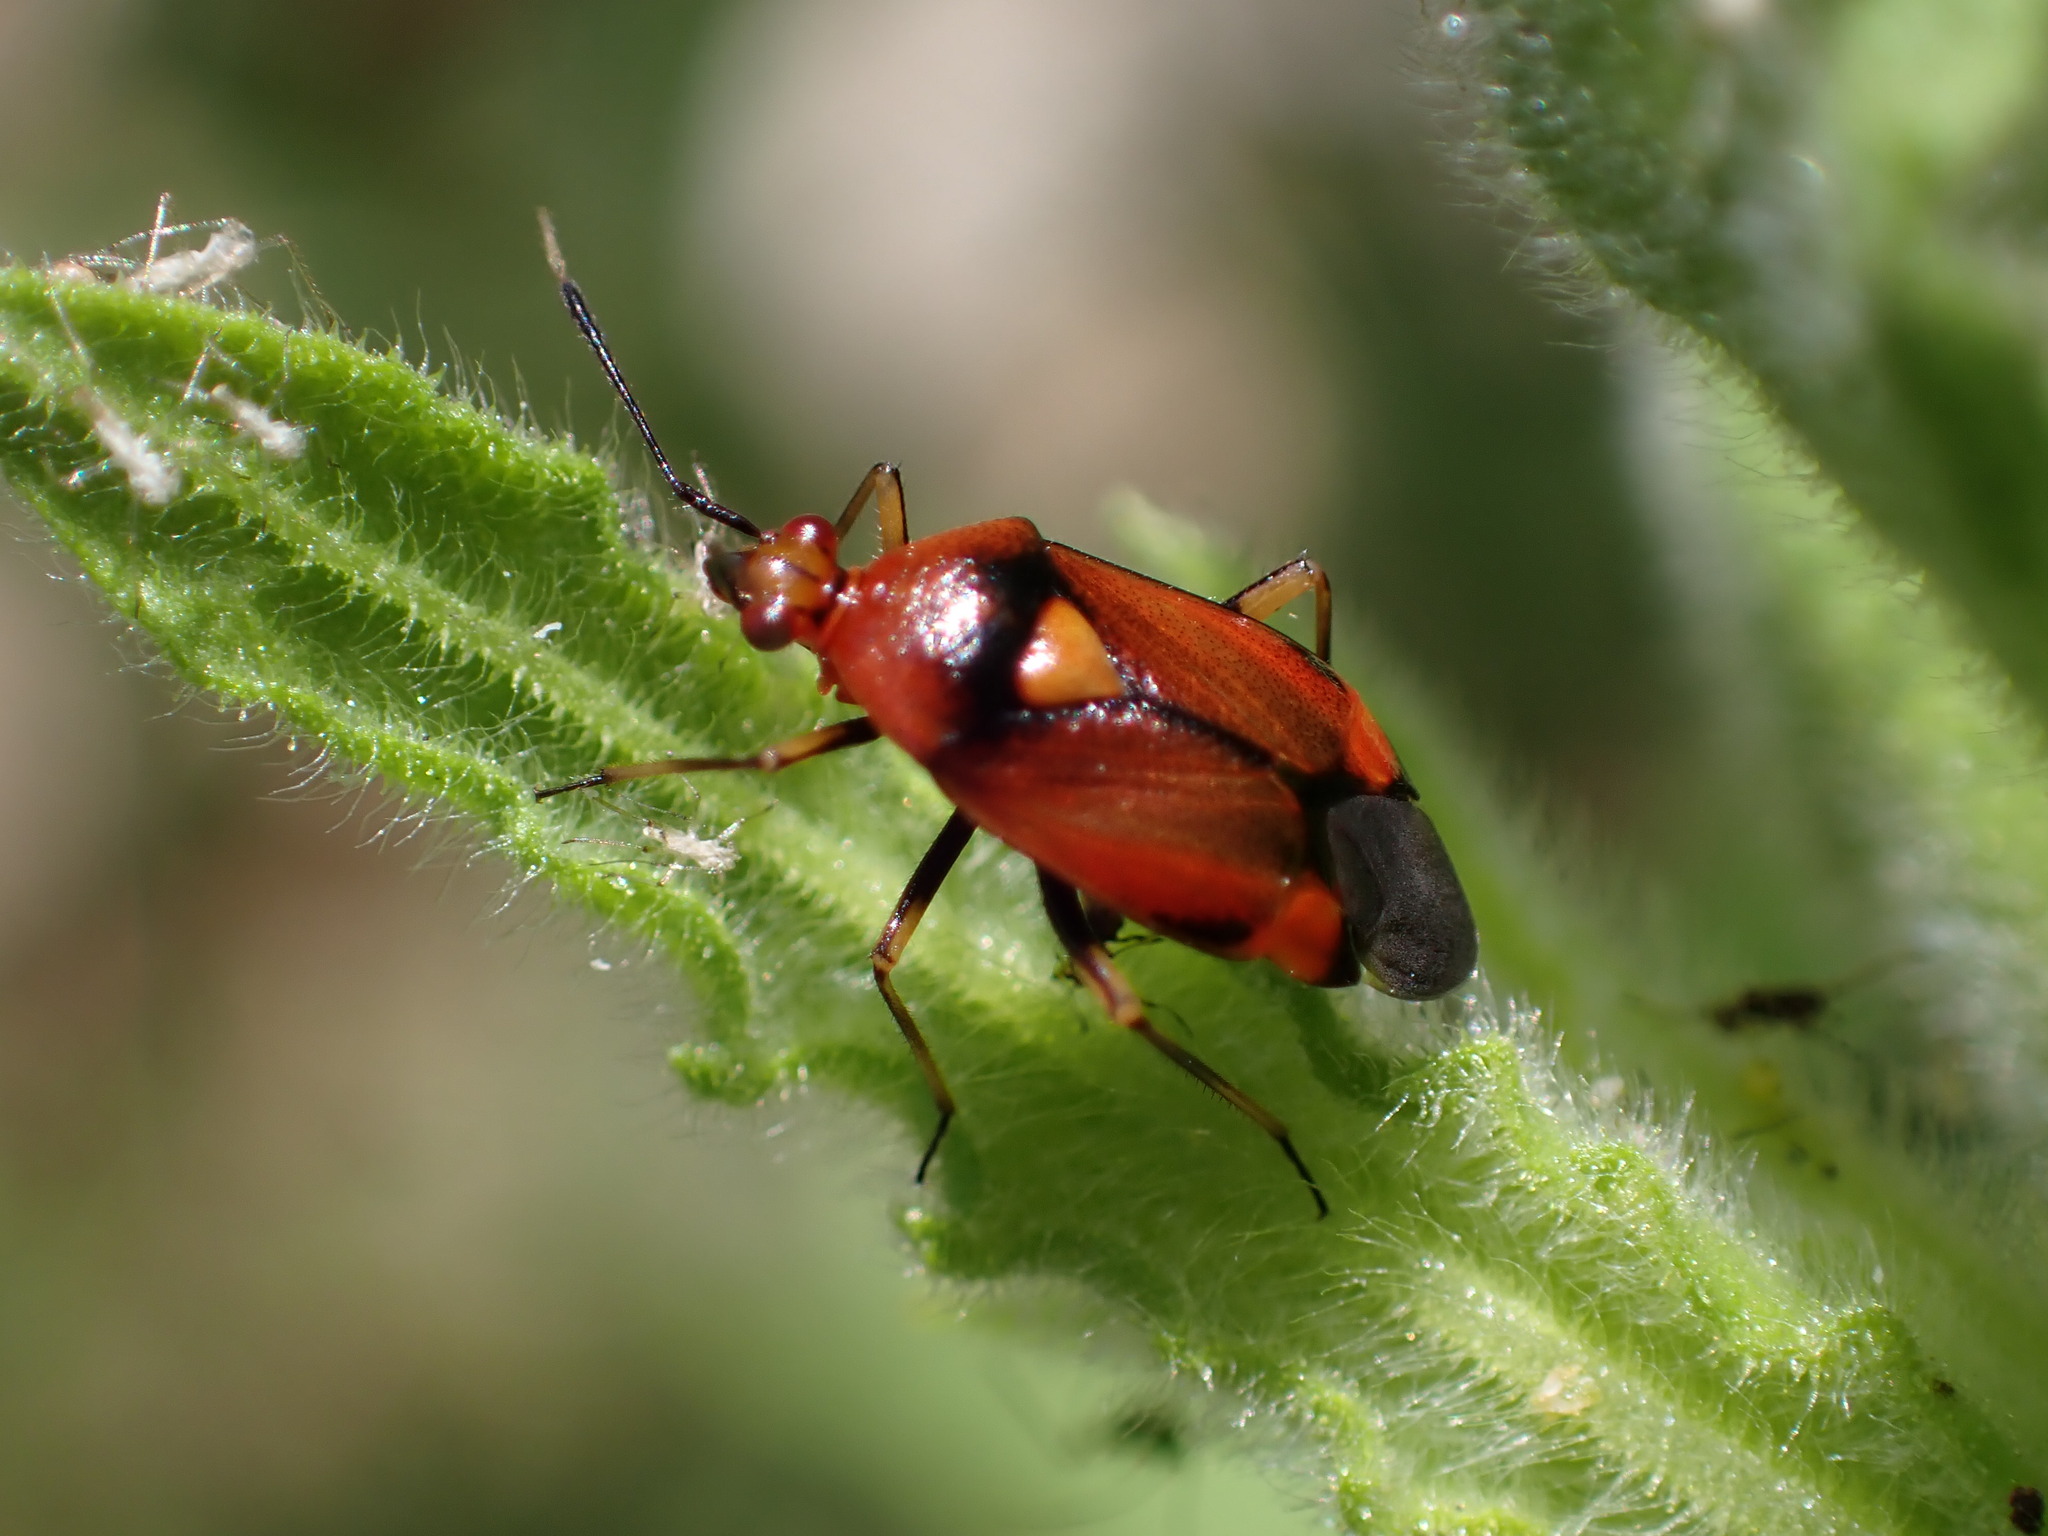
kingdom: Animalia
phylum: Arthropoda
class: Insecta
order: Hemiptera
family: Miridae
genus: Deraeocoris
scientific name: Deraeocoris ruber
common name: Plant bug
